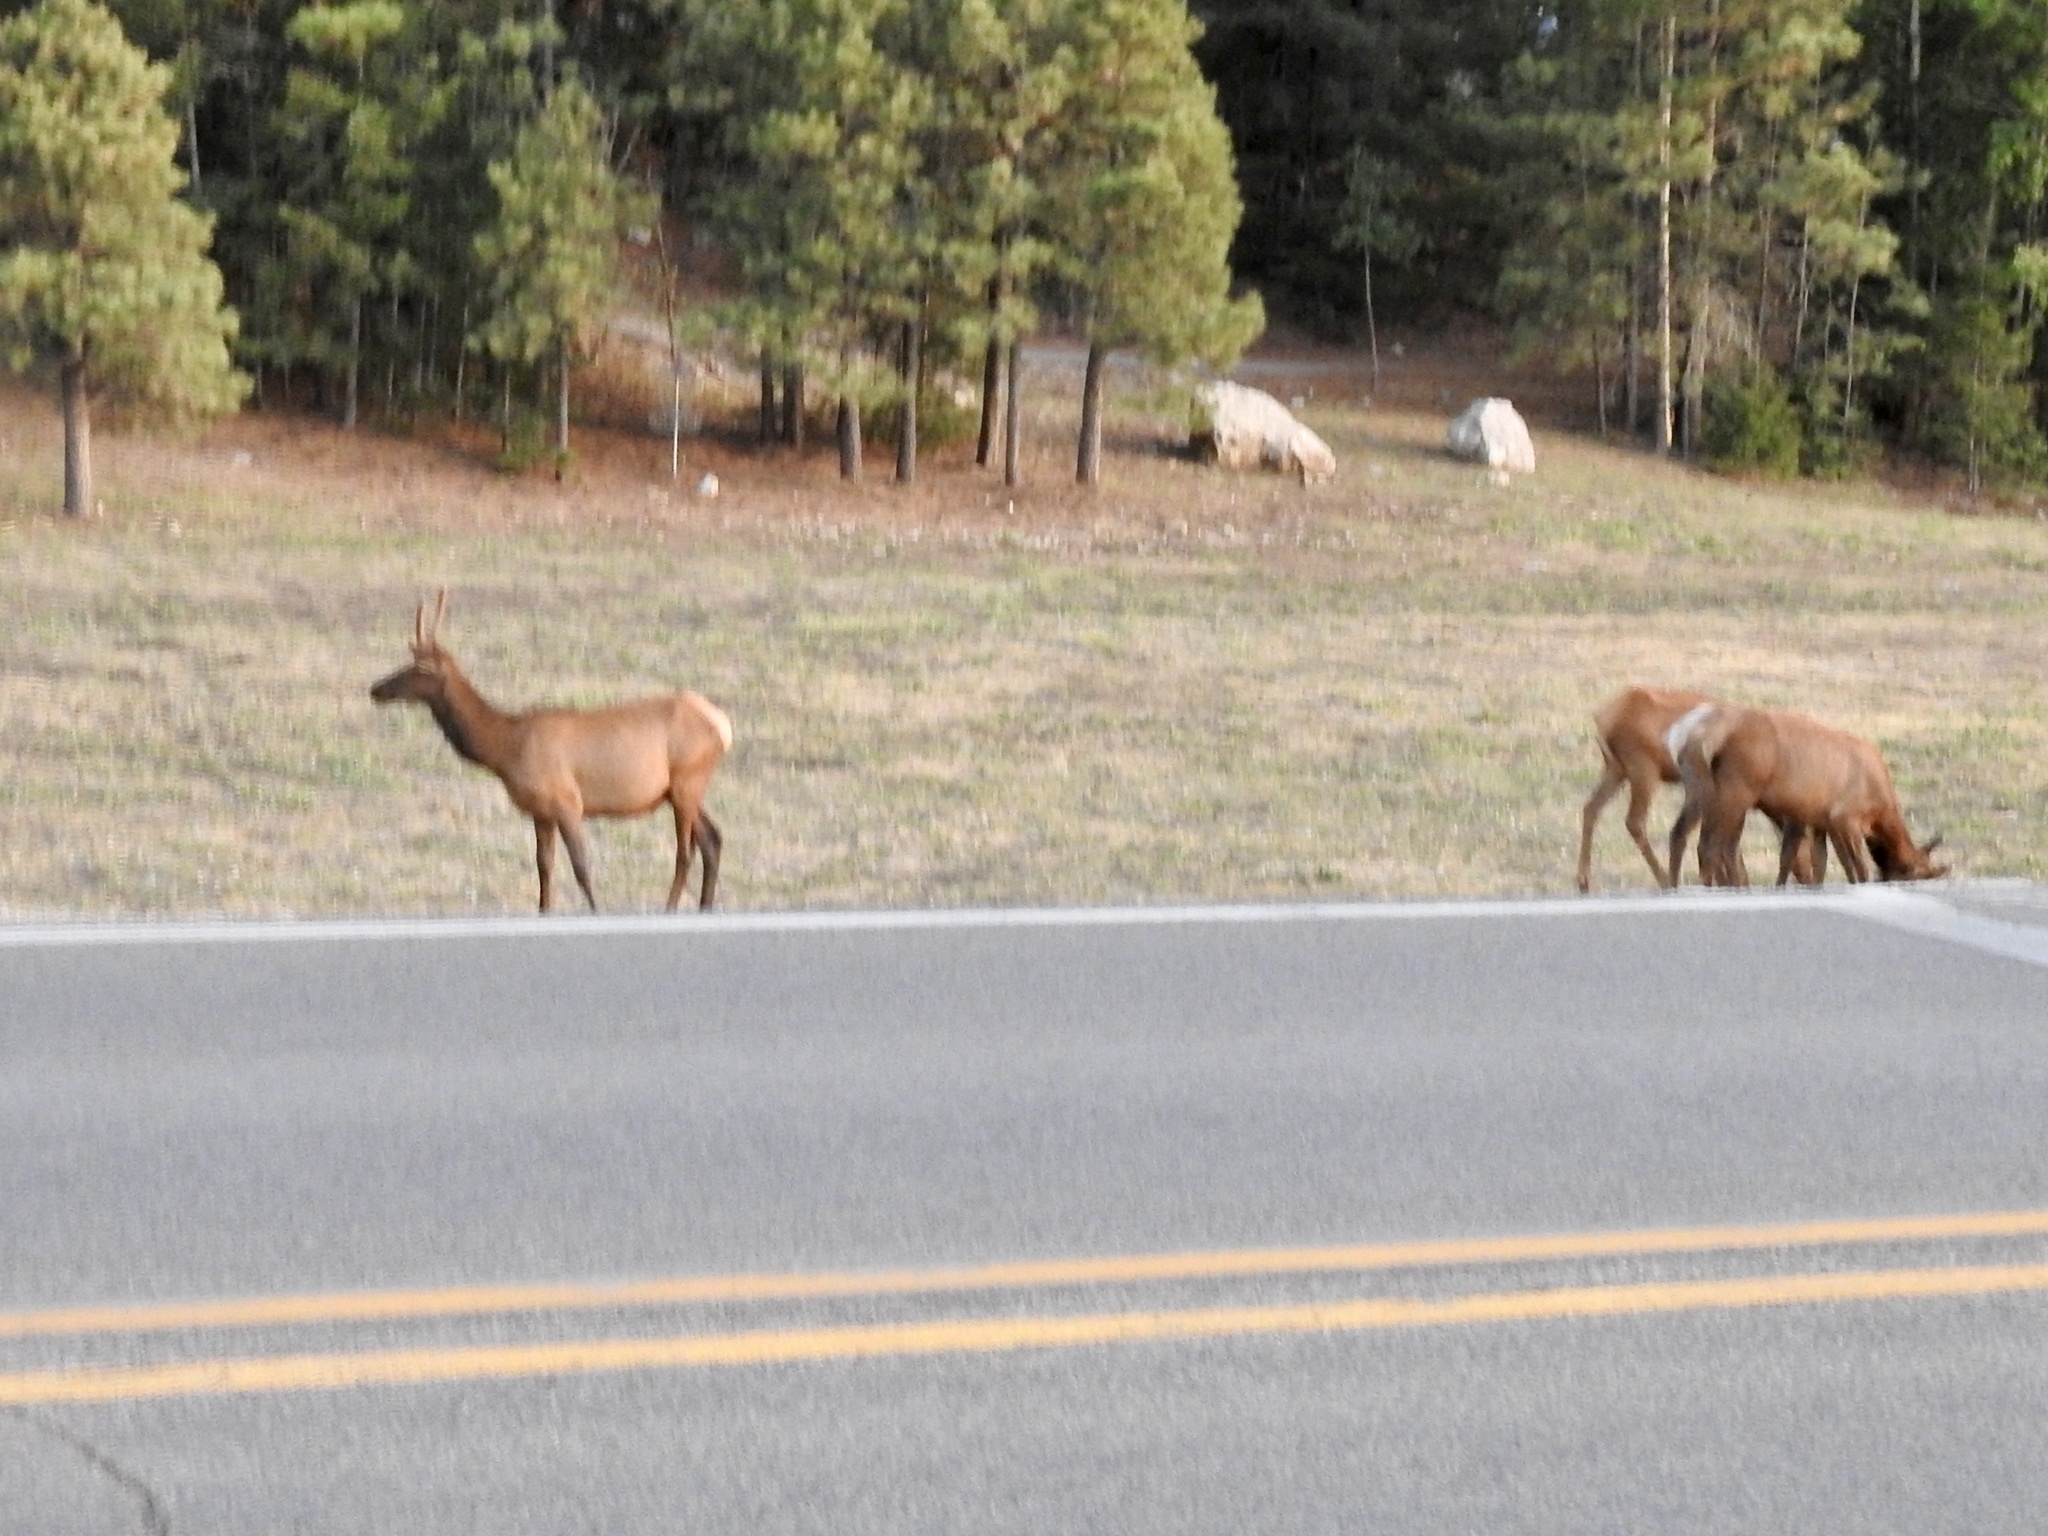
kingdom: Animalia
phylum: Chordata
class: Mammalia
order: Artiodactyla
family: Cervidae
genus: Cervus
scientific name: Cervus elaphus
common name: Red deer
